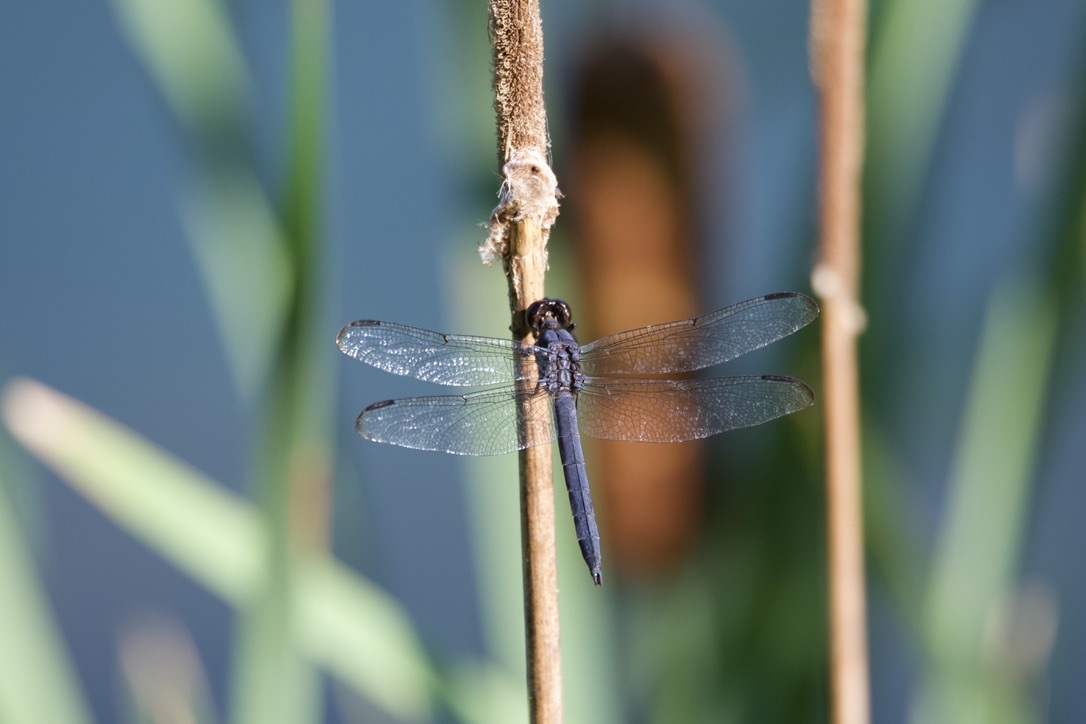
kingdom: Animalia
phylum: Arthropoda
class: Insecta
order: Odonata
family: Libellulidae
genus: Libellula
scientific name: Libellula incesta
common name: Slaty skimmer
